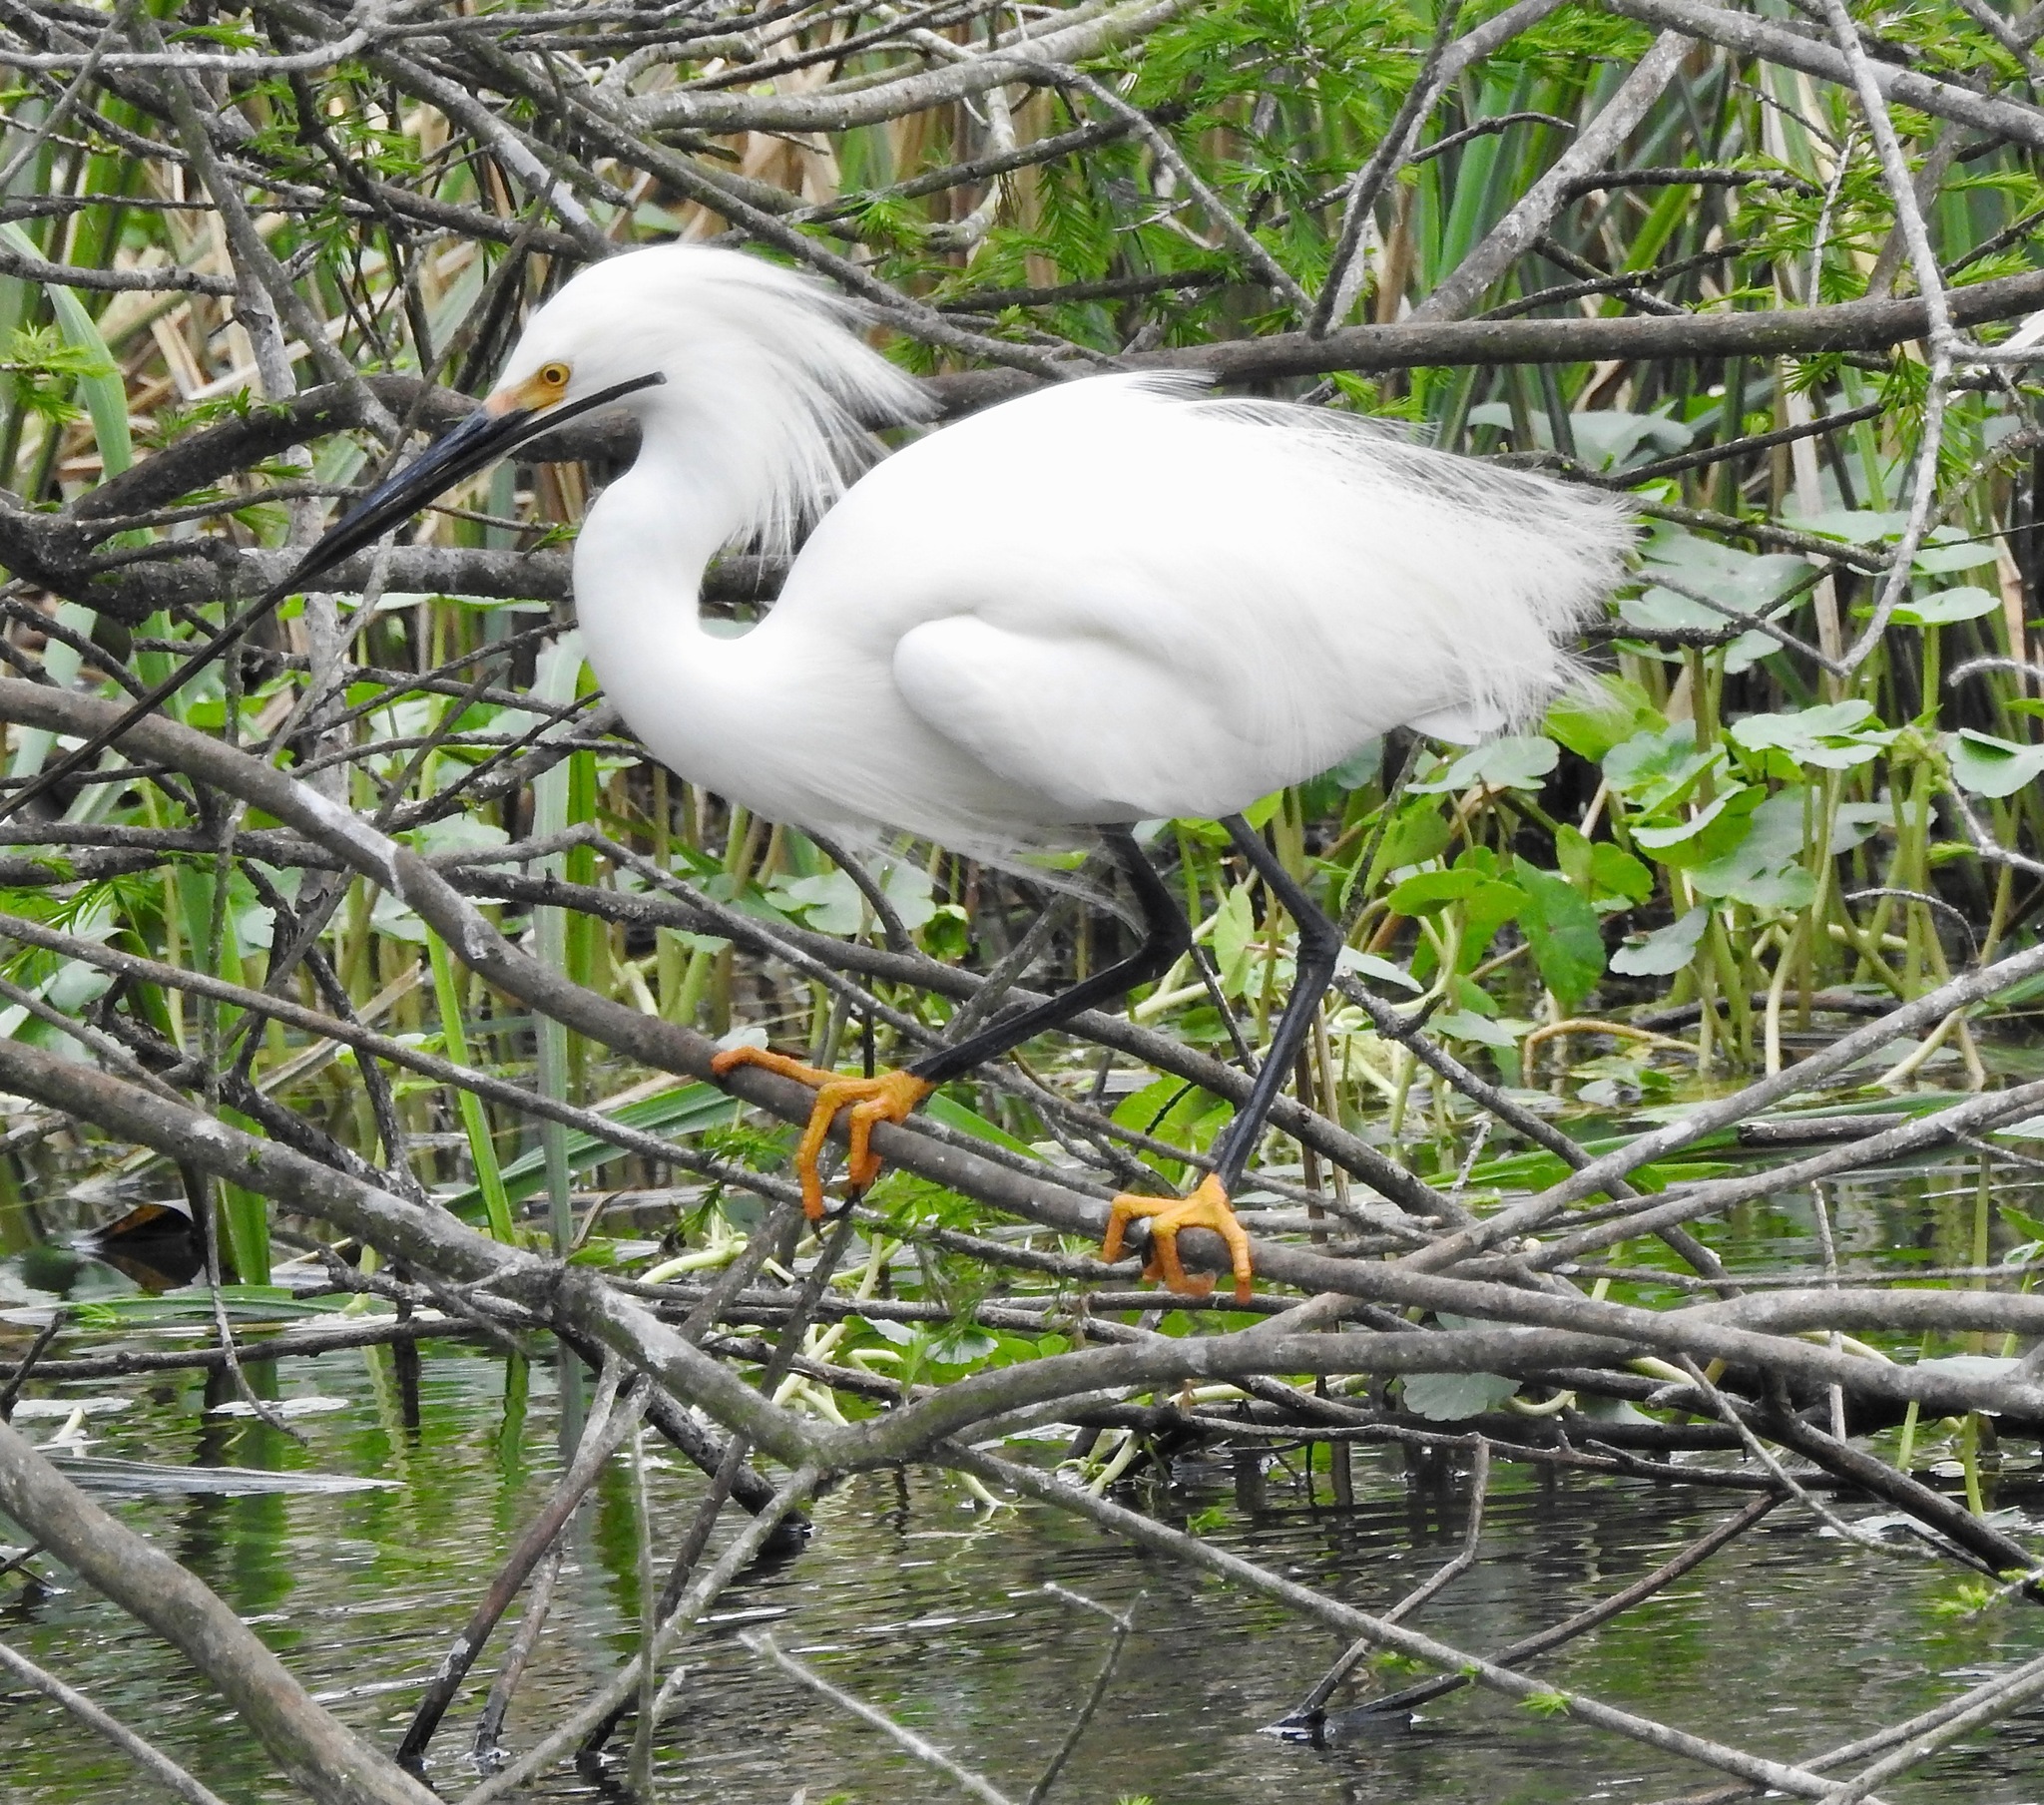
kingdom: Animalia
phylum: Chordata
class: Aves
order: Pelecaniformes
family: Ardeidae
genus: Egretta
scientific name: Egretta thula
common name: Snowy egret
